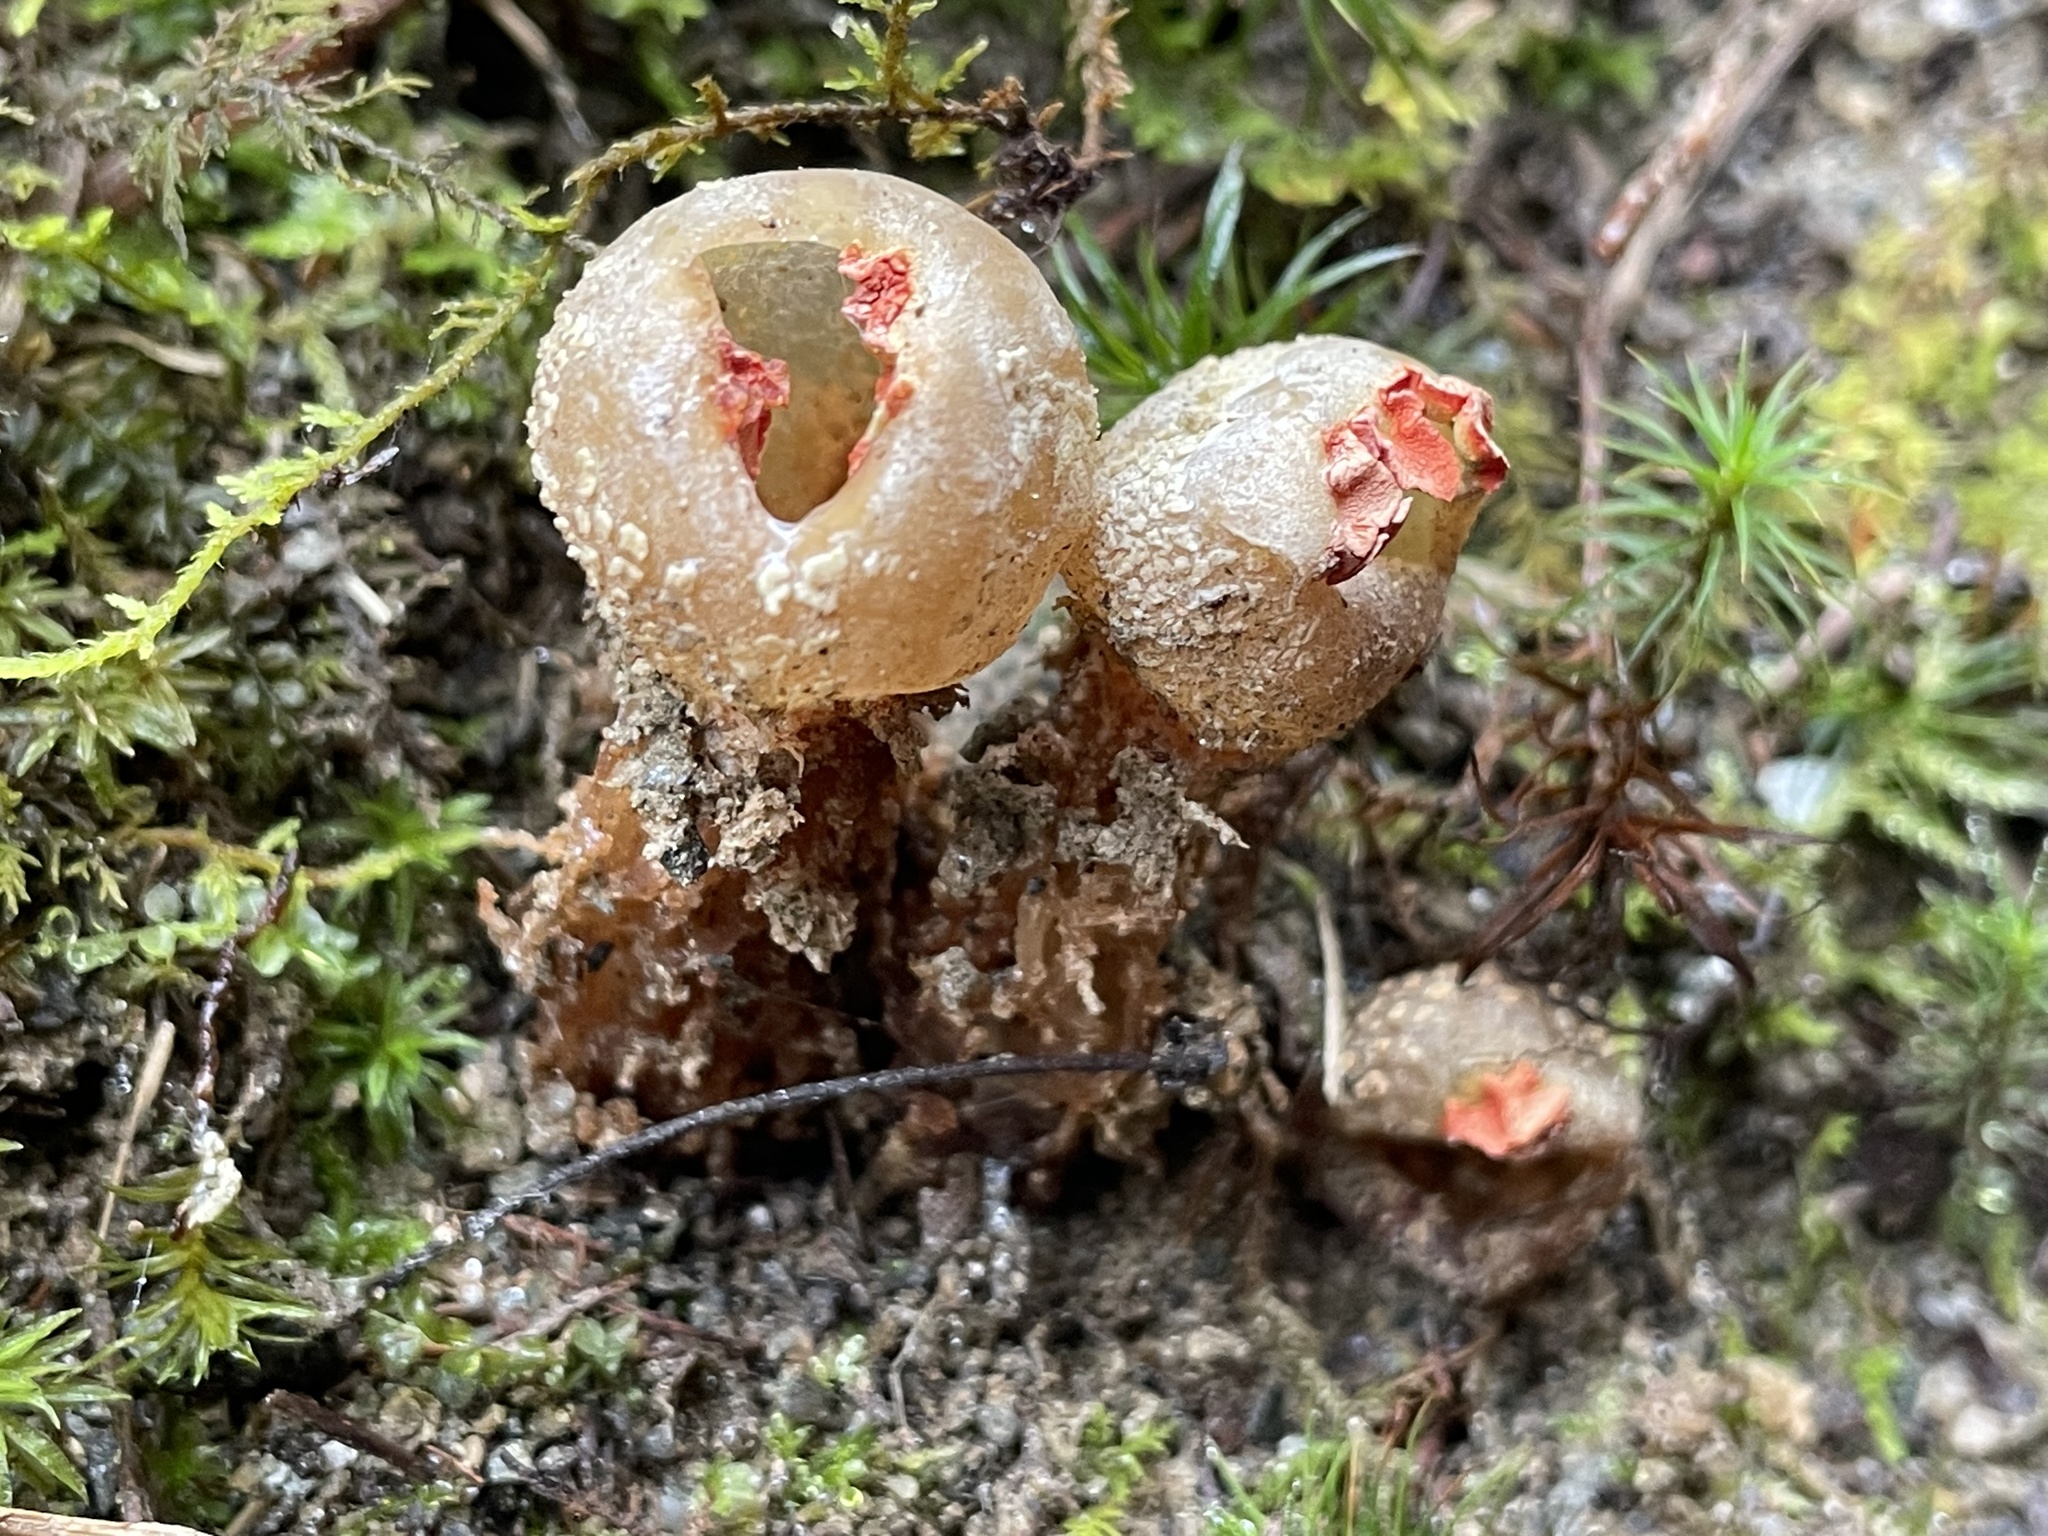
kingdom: Fungi
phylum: Basidiomycota
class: Agaricomycetes
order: Boletales
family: Calostomataceae
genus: Calostoma
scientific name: Calostoma ravenelii
